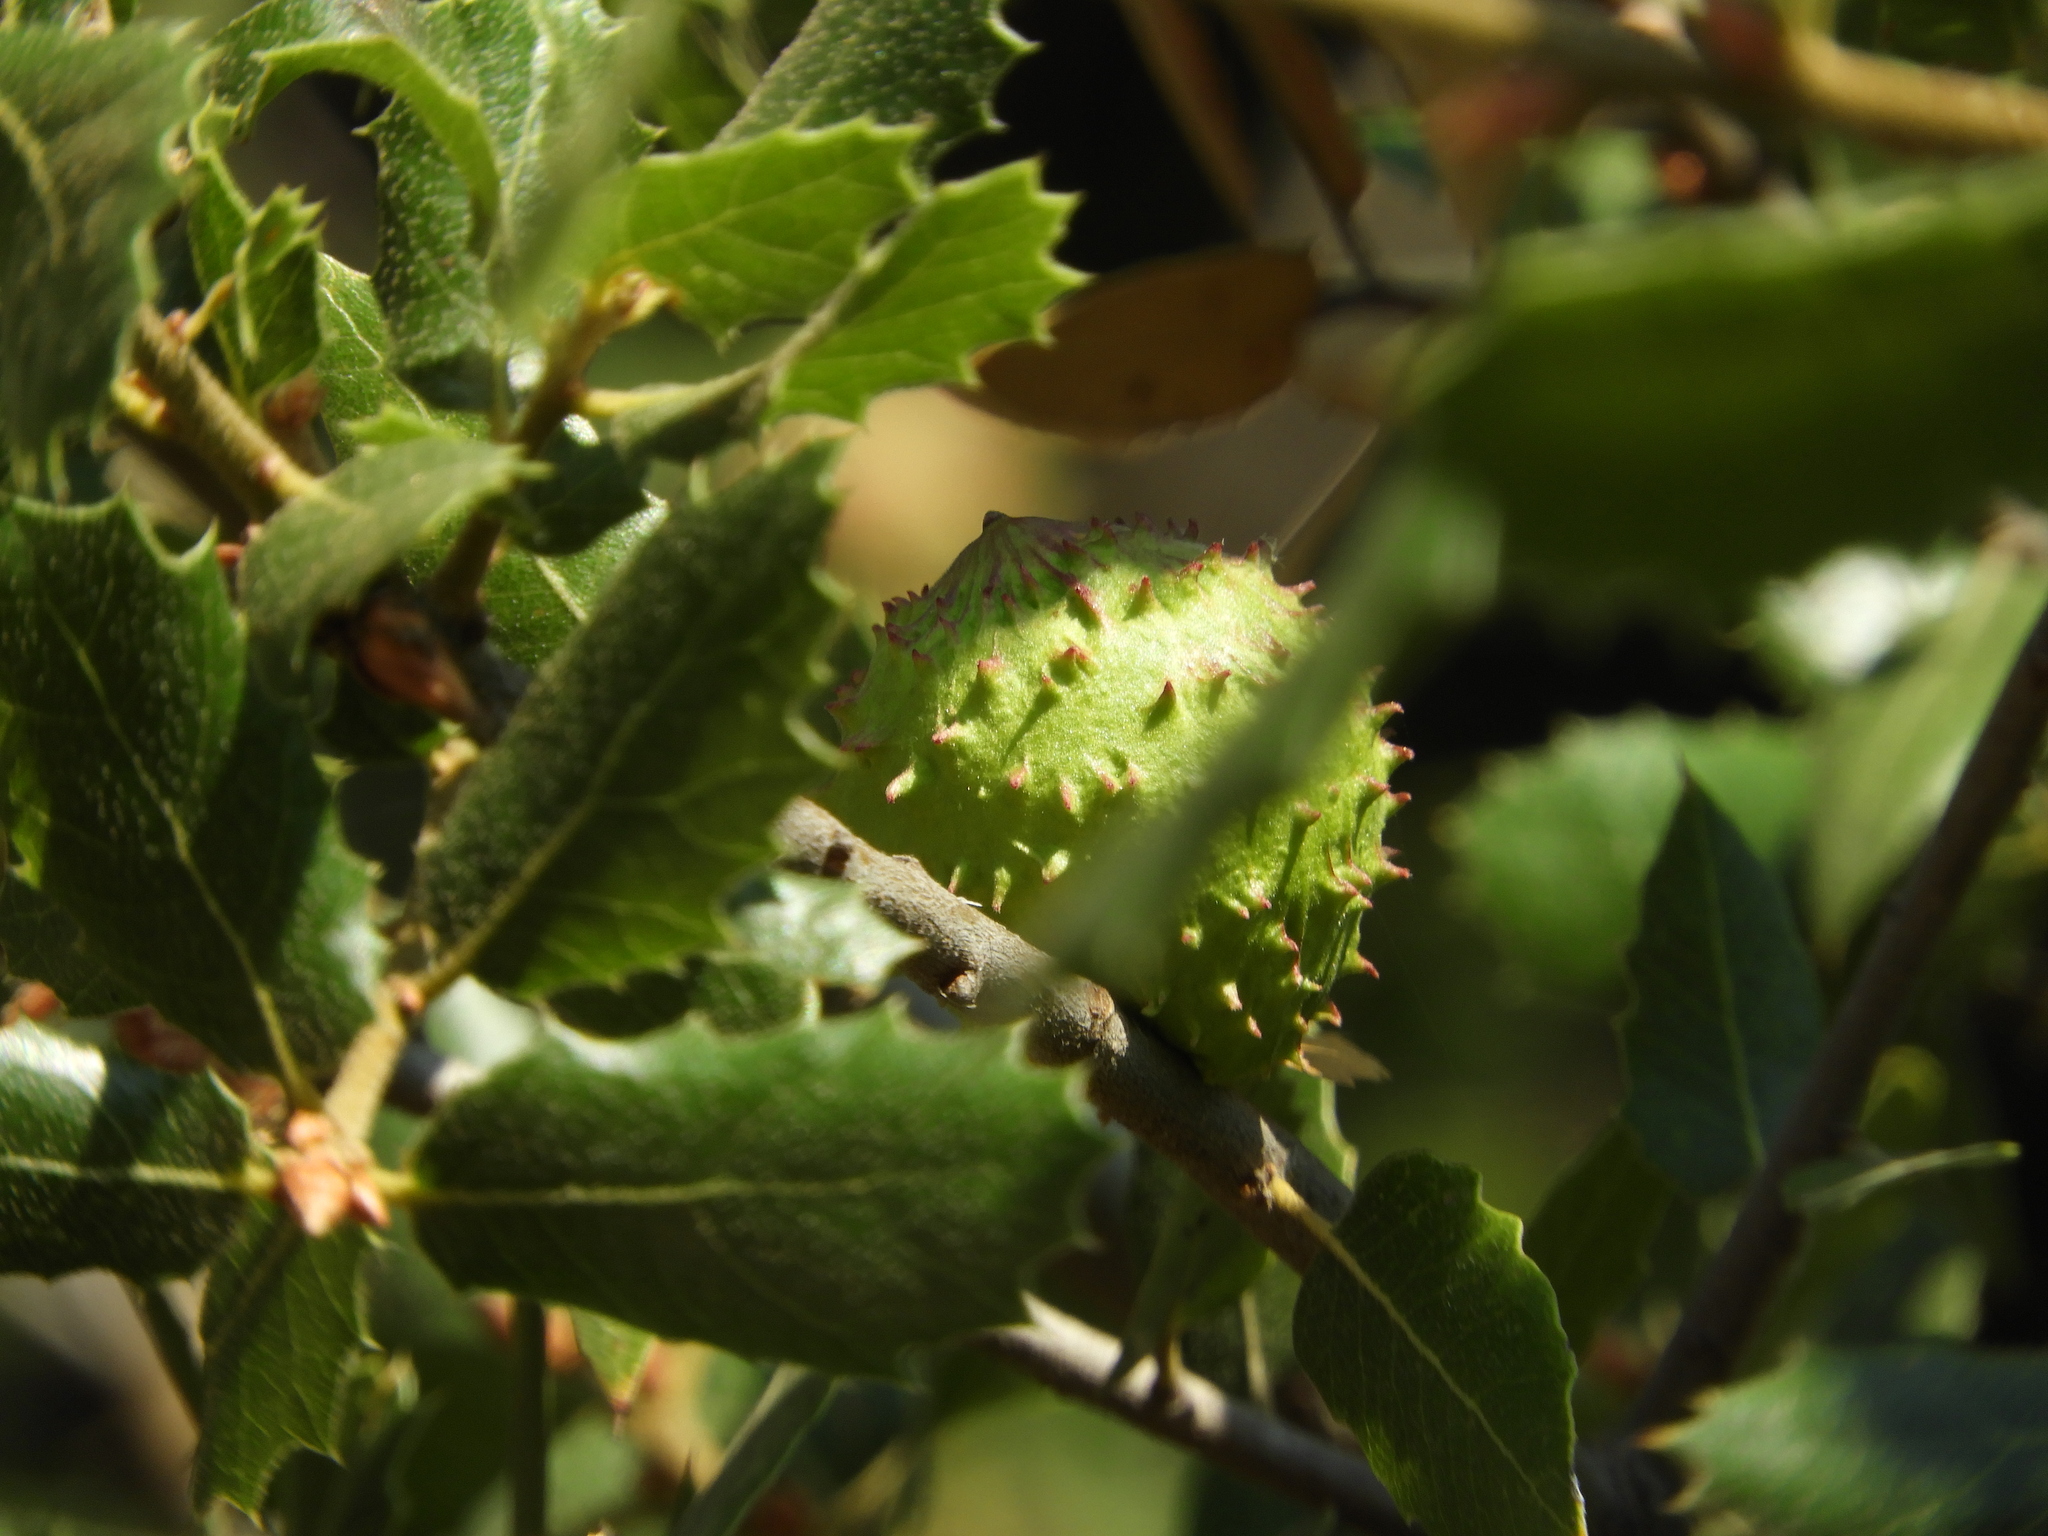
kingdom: Animalia
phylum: Arthropoda
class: Insecta
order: Hymenoptera
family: Cynipidae
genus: Amphibolips
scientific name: Amphibolips quercuspomiformis
